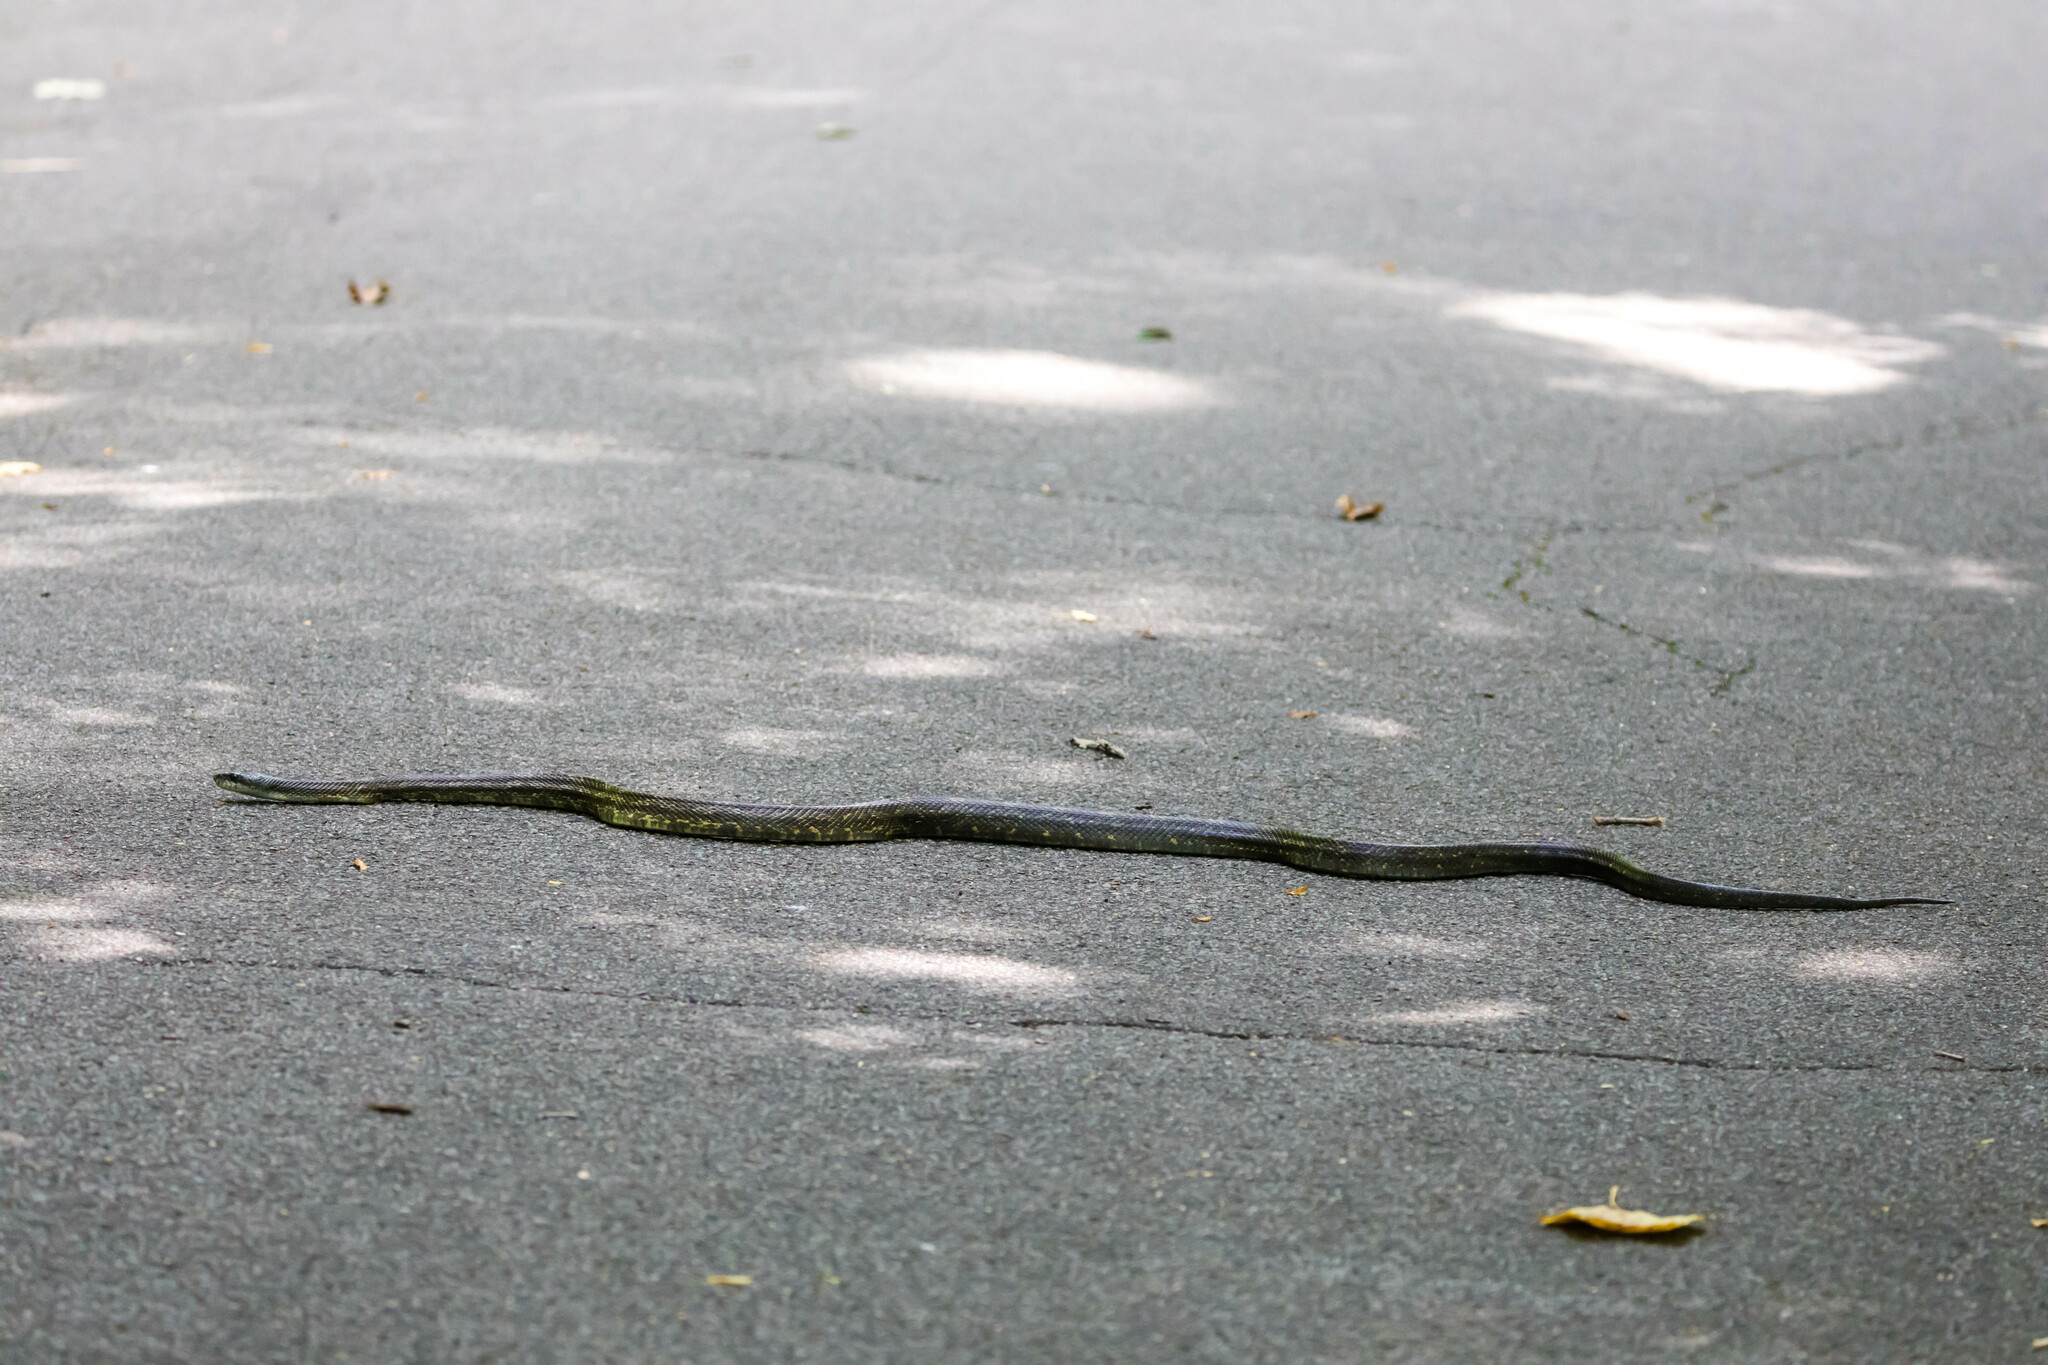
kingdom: Animalia
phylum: Chordata
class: Squamata
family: Colubridae
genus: Pantherophis
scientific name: Pantherophis spiloides
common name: Gray rat snake
